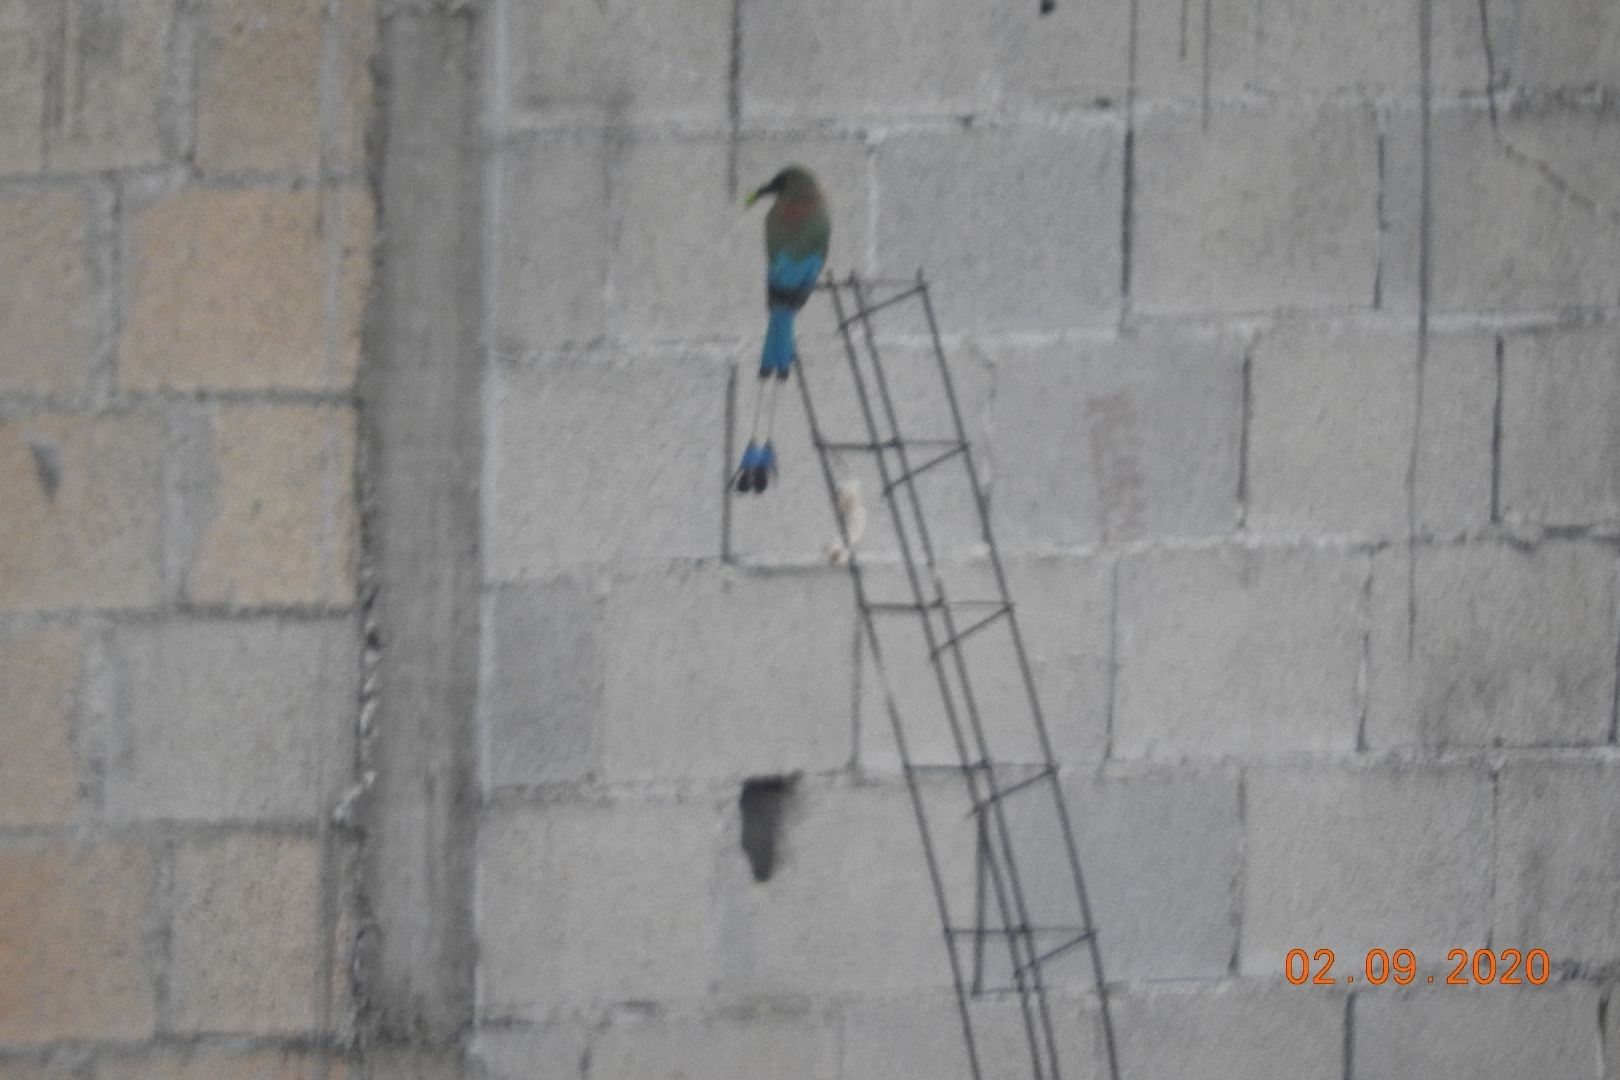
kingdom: Animalia
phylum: Chordata
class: Aves
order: Coraciiformes
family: Momotidae
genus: Eumomota
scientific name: Eumomota superciliosa
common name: Turquoise-browed motmot
